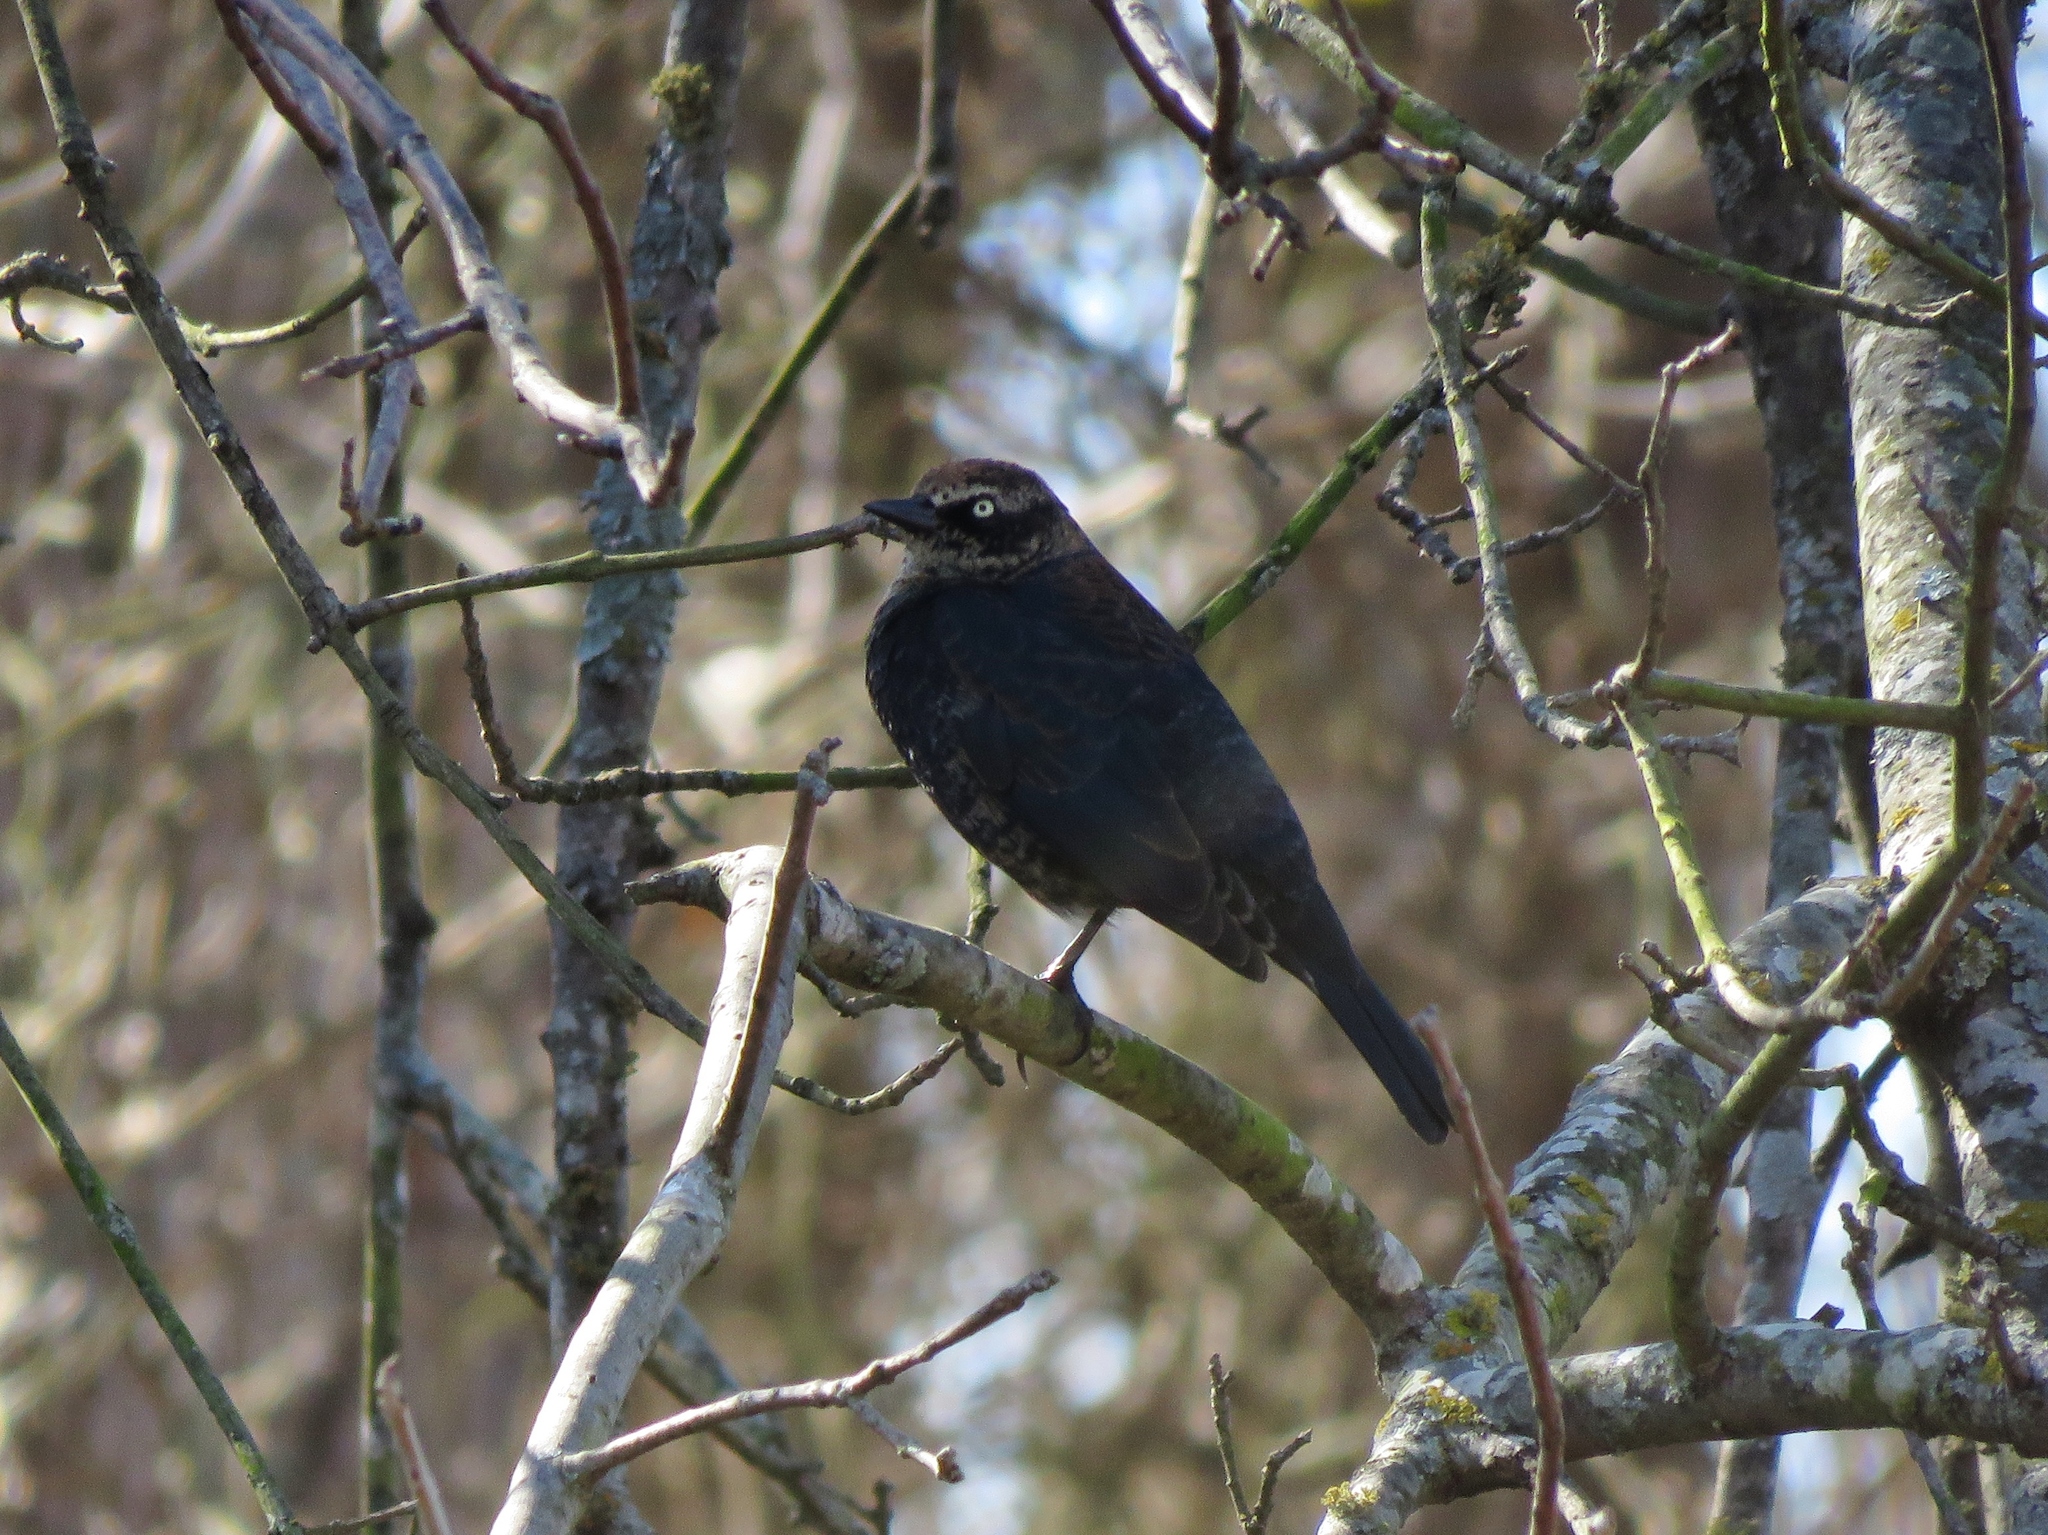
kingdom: Animalia
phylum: Chordata
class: Aves
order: Passeriformes
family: Icteridae
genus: Euphagus
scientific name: Euphagus carolinus
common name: Rusty blackbird
